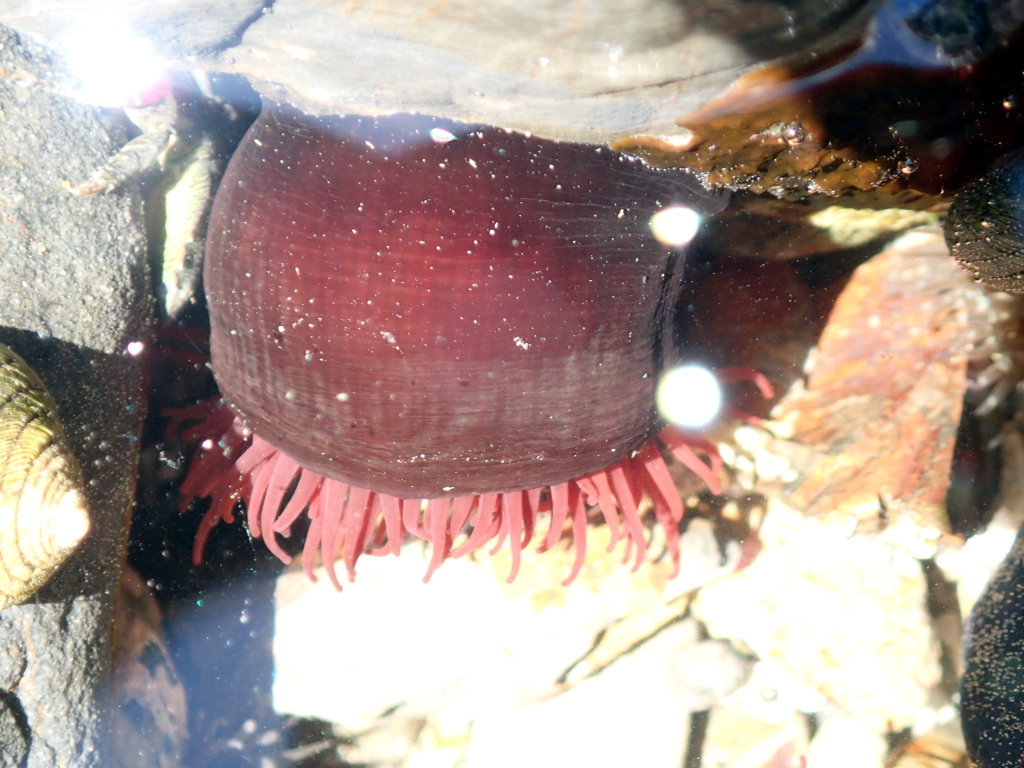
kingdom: Animalia
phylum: Cnidaria
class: Anthozoa
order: Actiniaria
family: Actiniidae
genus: Actinia
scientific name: Actinia tenebrosa
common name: Waratah anemone
